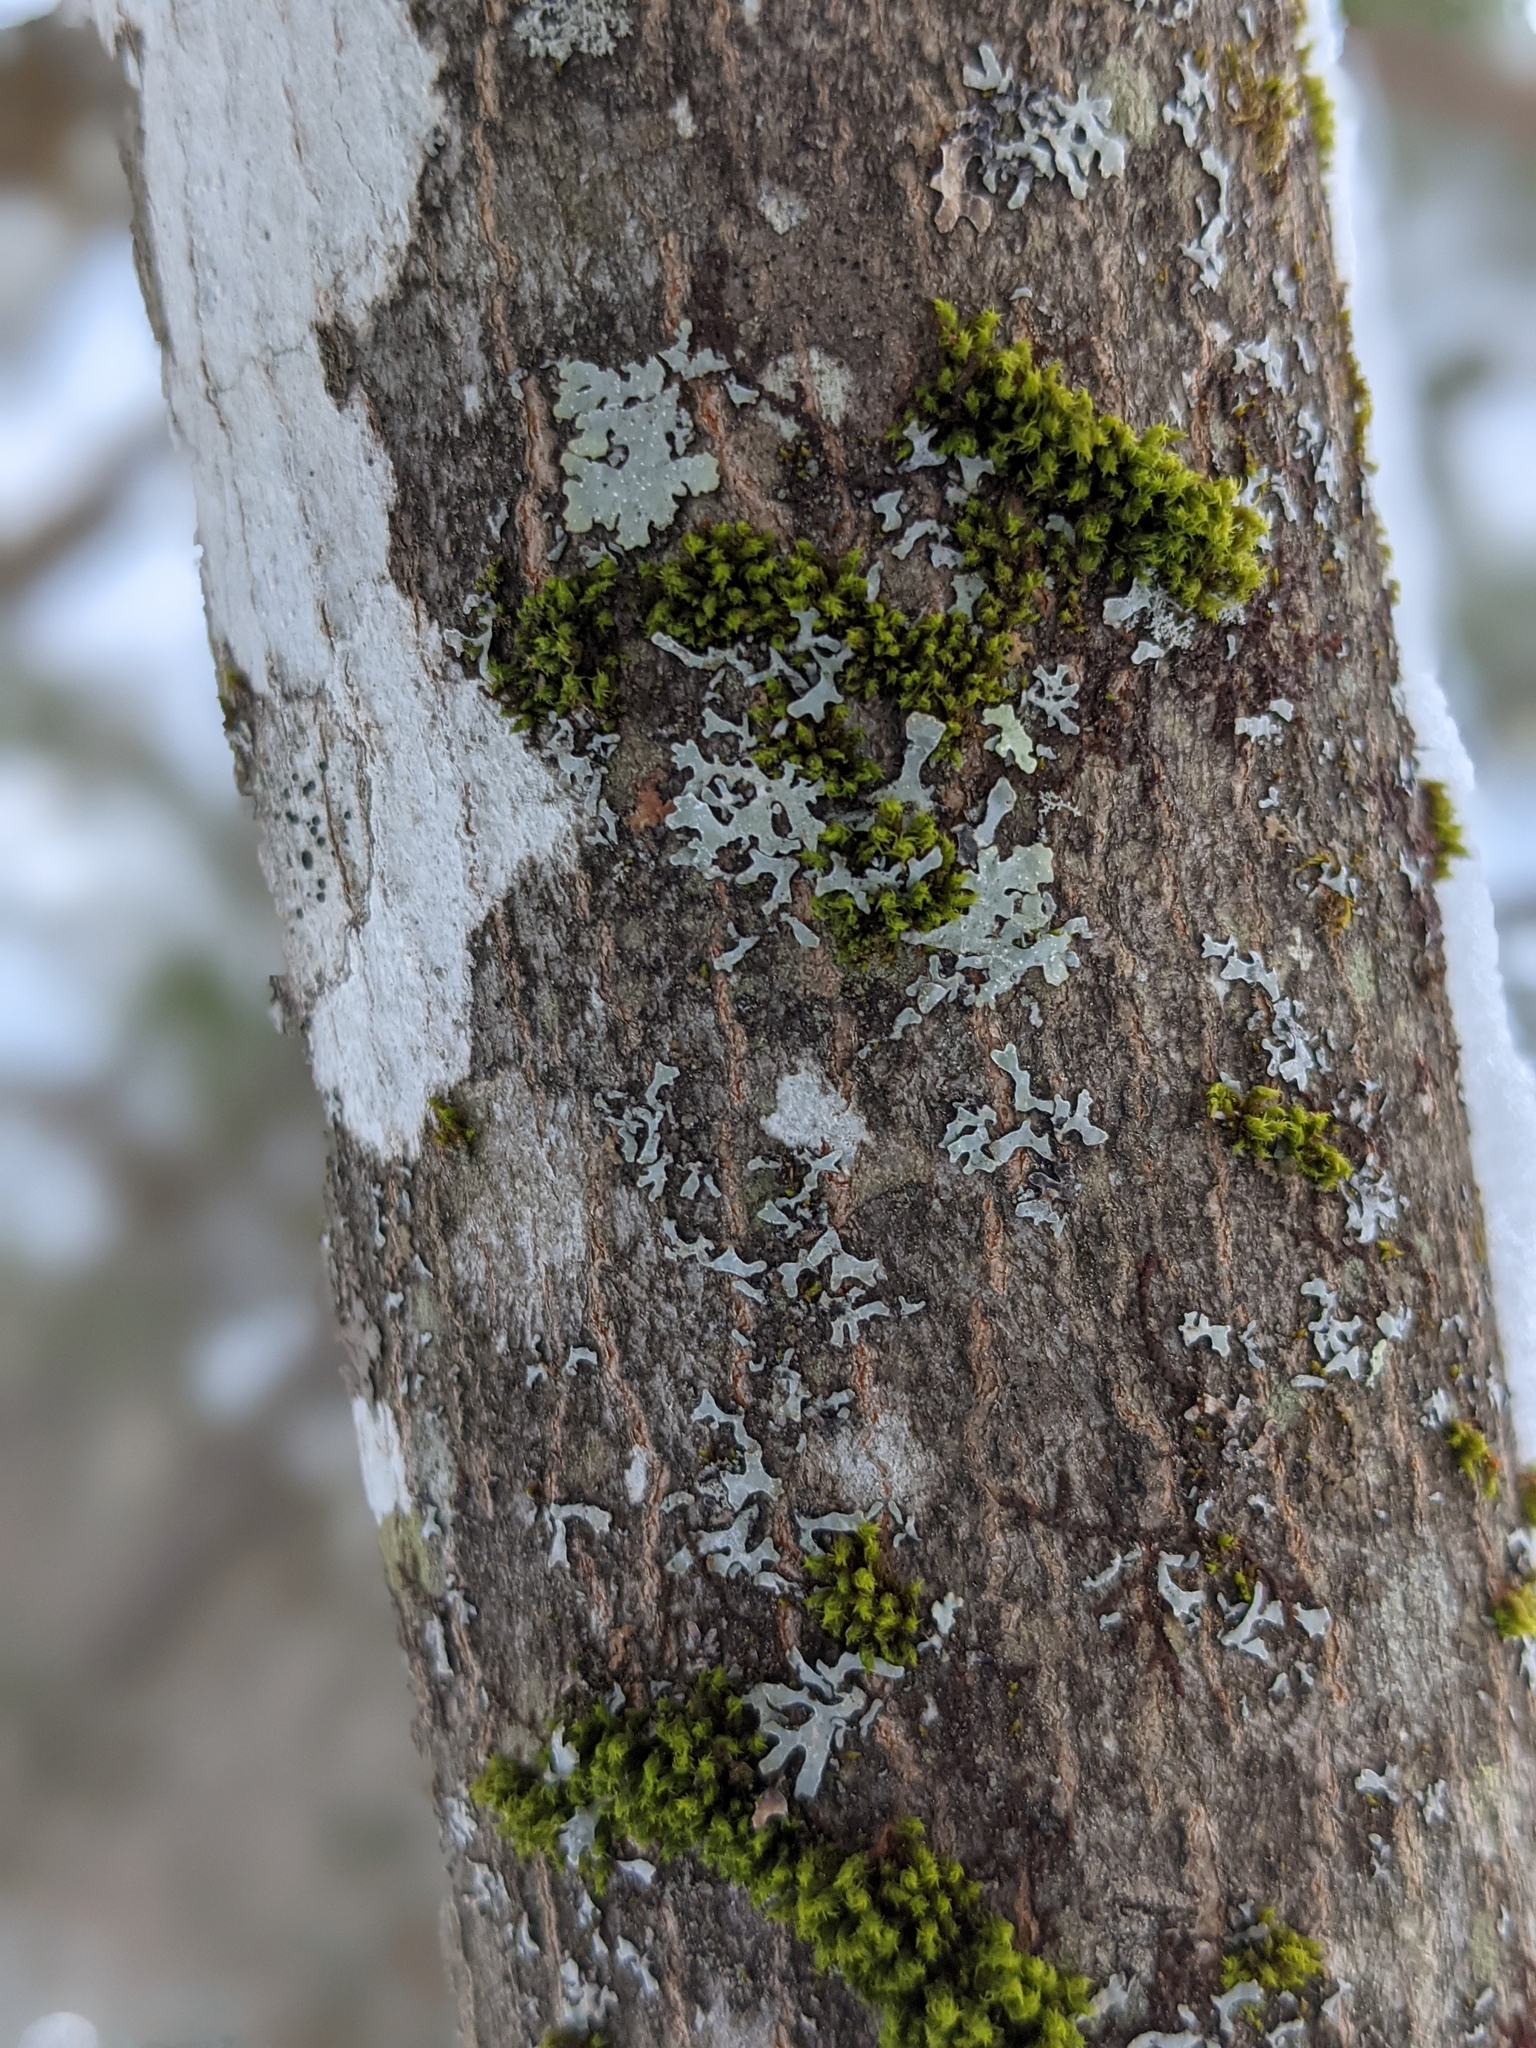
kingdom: Plantae
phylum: Bryophyta
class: Bryopsida
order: Orthotrichales
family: Orthotrichaceae
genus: Ulota
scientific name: Ulota crispa
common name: Crisped pincushion moss
